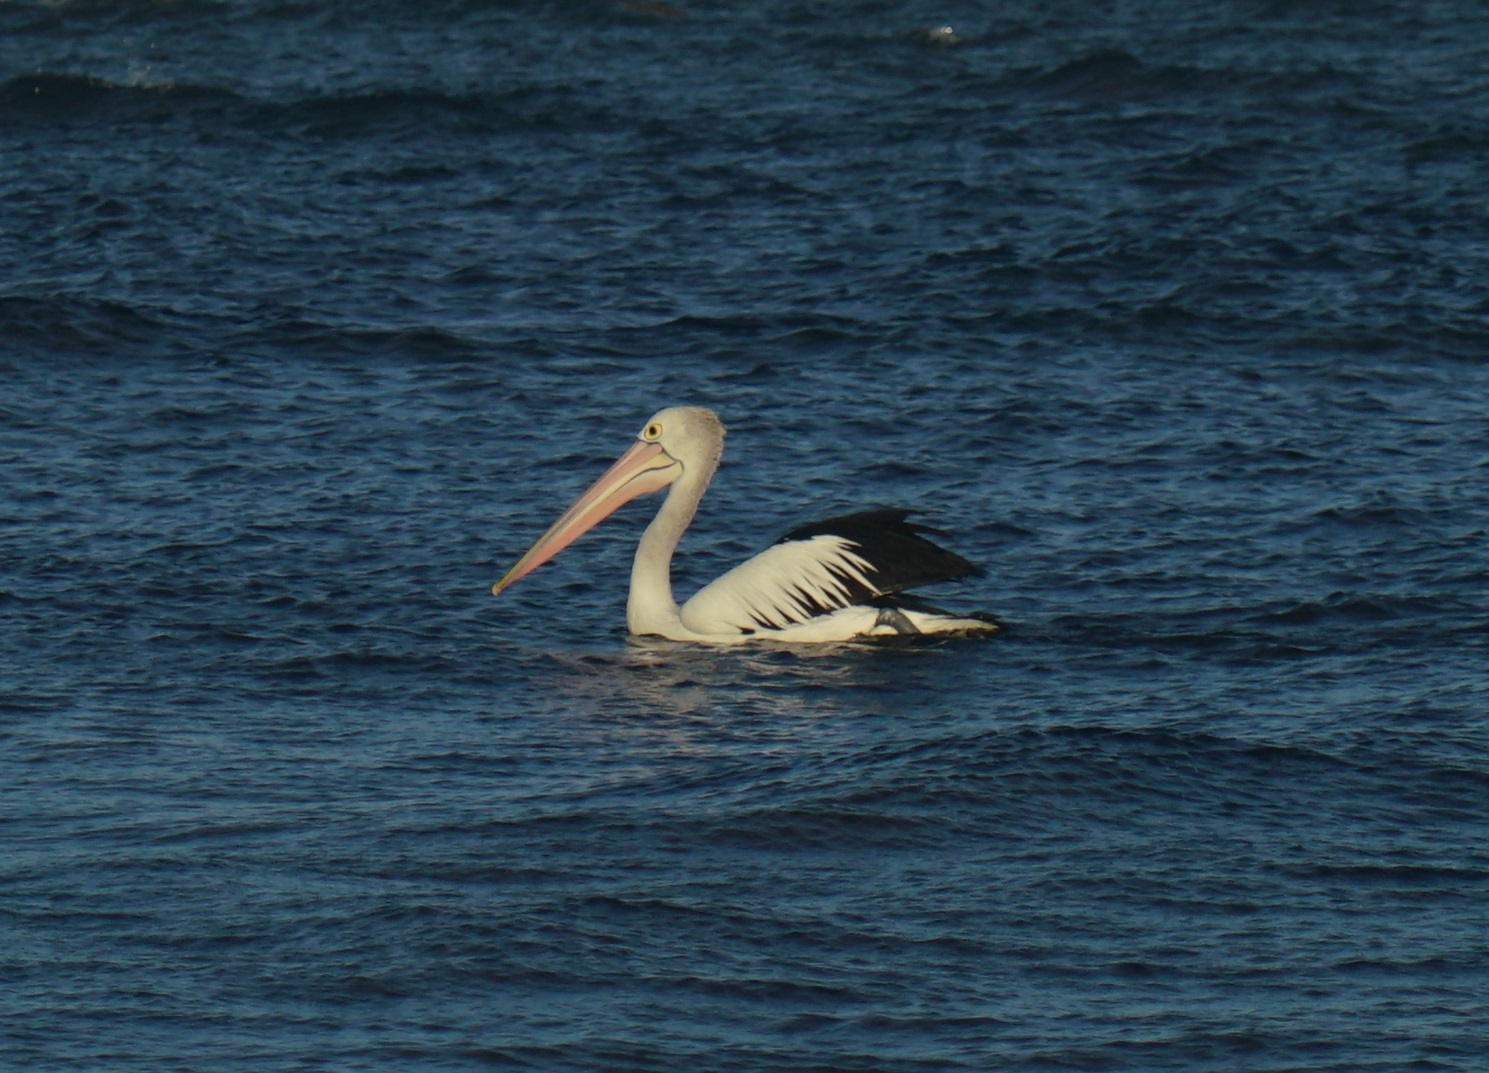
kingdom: Animalia
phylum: Chordata
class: Aves
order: Pelecaniformes
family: Pelecanidae
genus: Pelecanus
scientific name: Pelecanus conspicillatus
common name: Australian pelican
